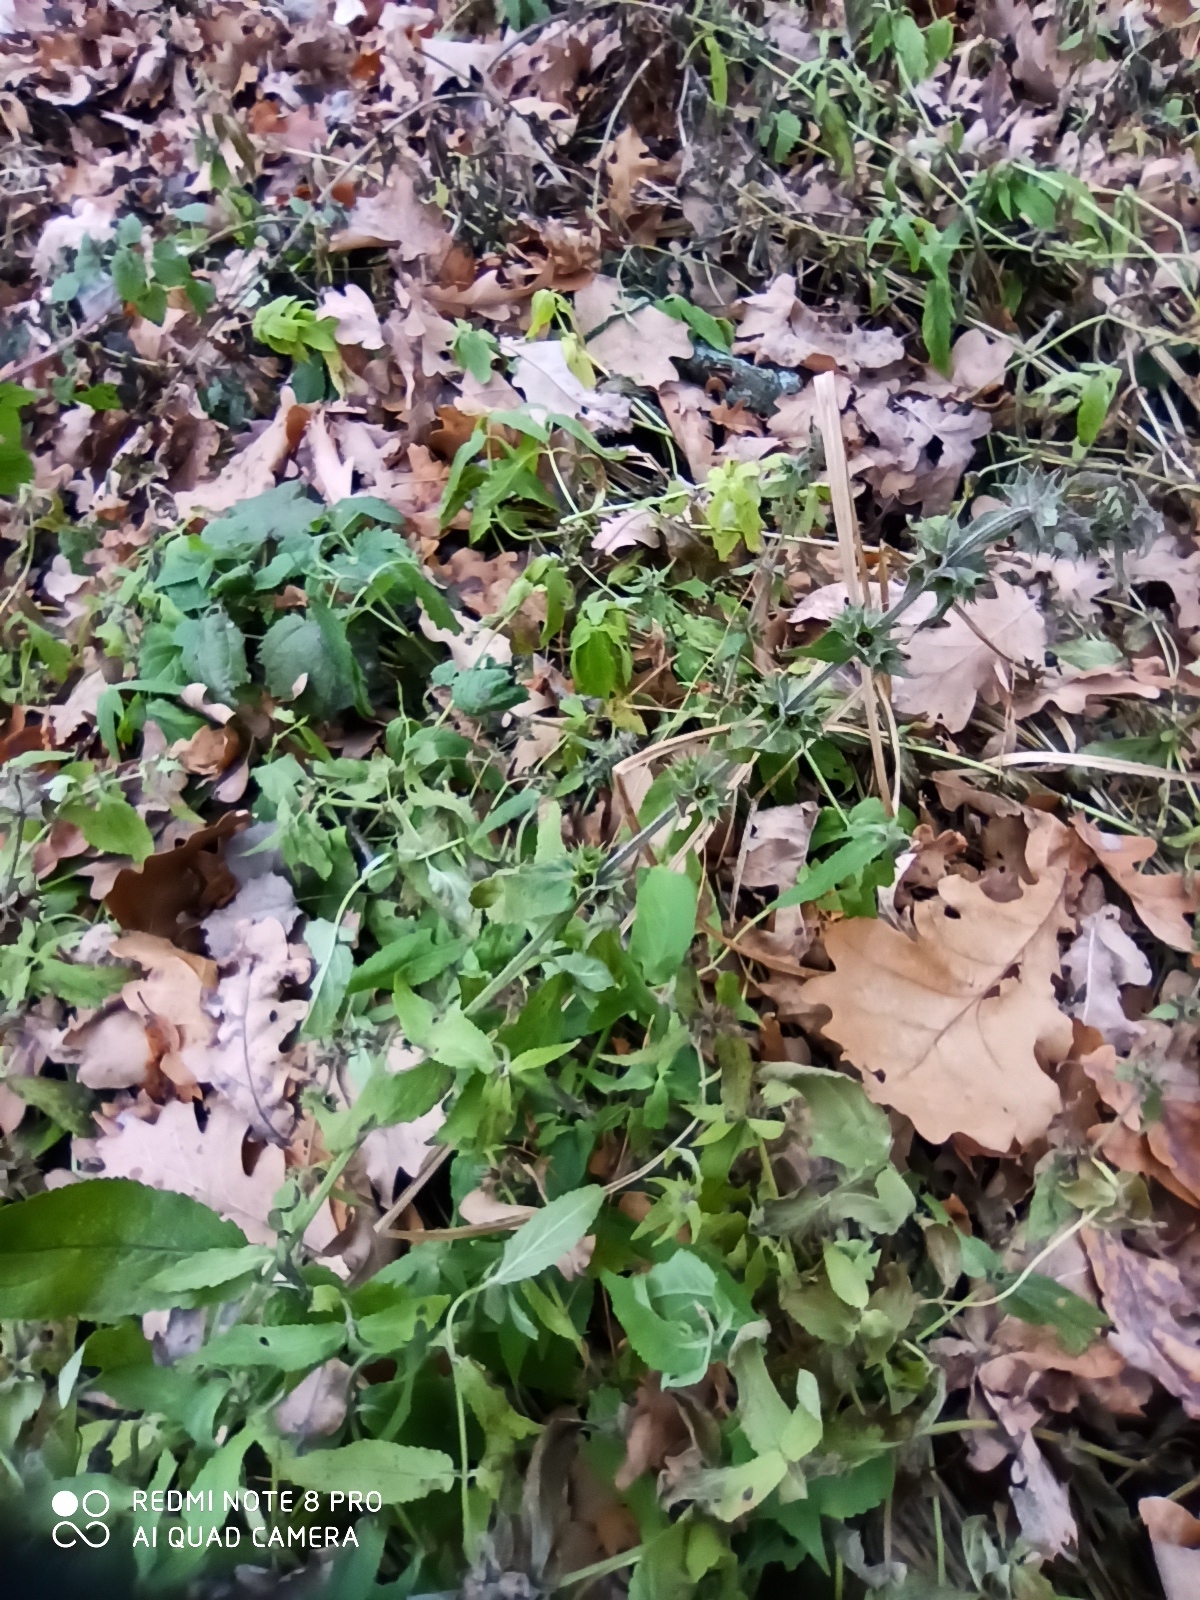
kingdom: Plantae
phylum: Tracheophyta
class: Magnoliopsida
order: Lamiales
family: Lamiaceae
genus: Stachys
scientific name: Stachys palustris
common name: Marsh woundwort
